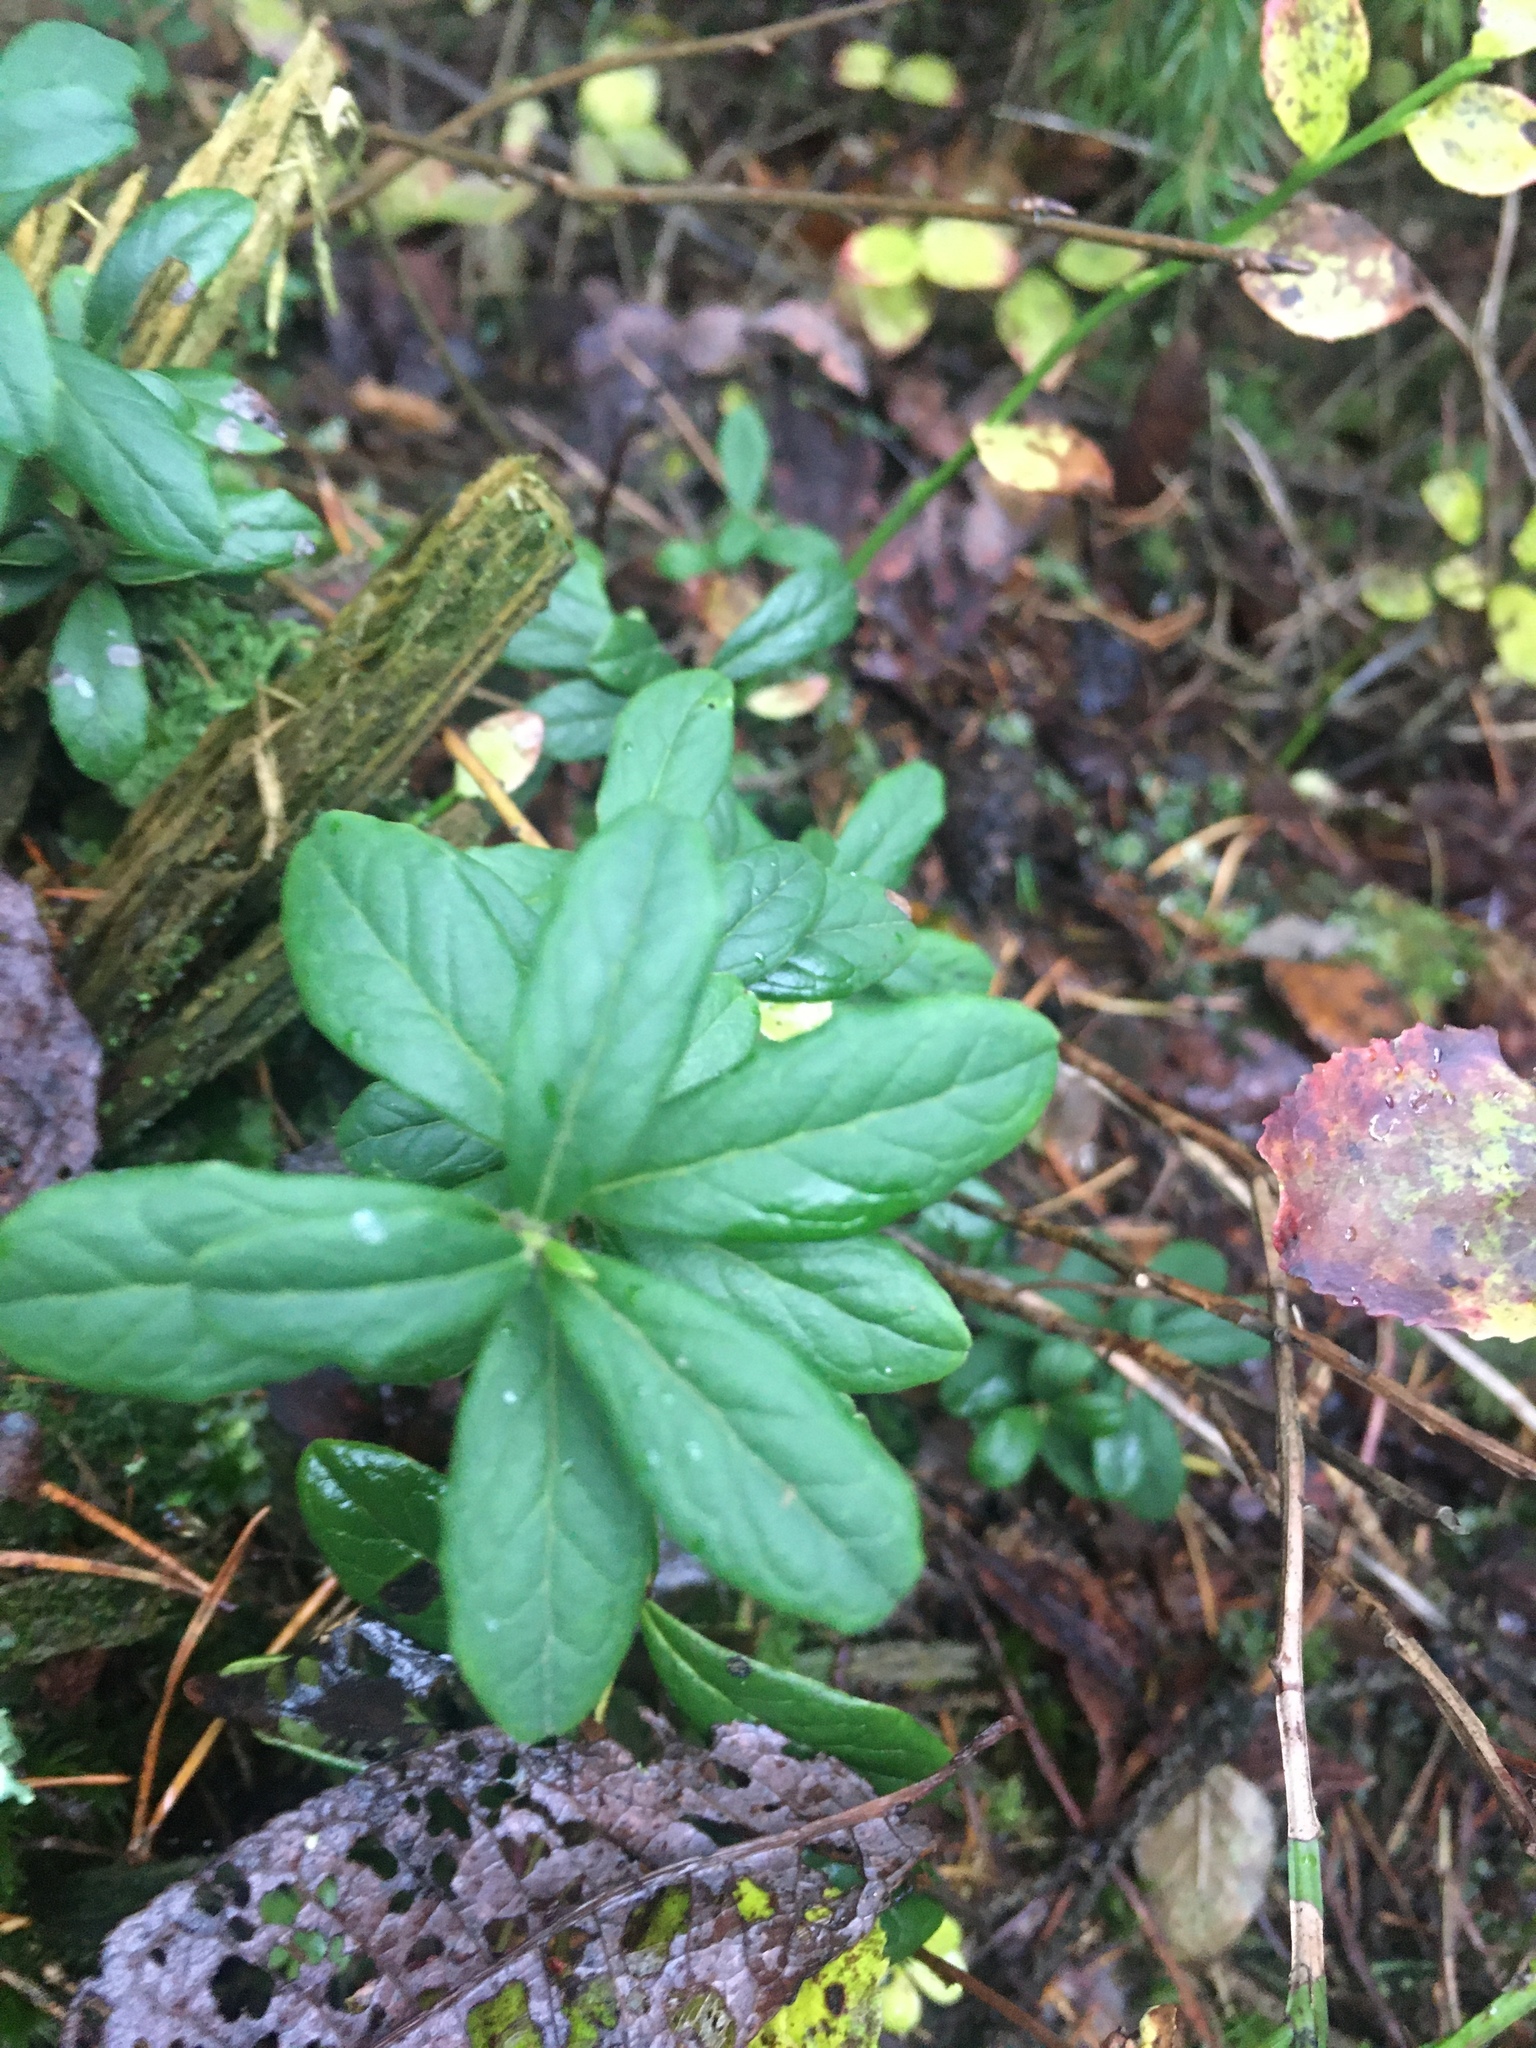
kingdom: Plantae
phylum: Tracheophyta
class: Magnoliopsida
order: Ericales
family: Ericaceae
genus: Vaccinium
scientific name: Vaccinium vitis-idaea
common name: Cowberry
